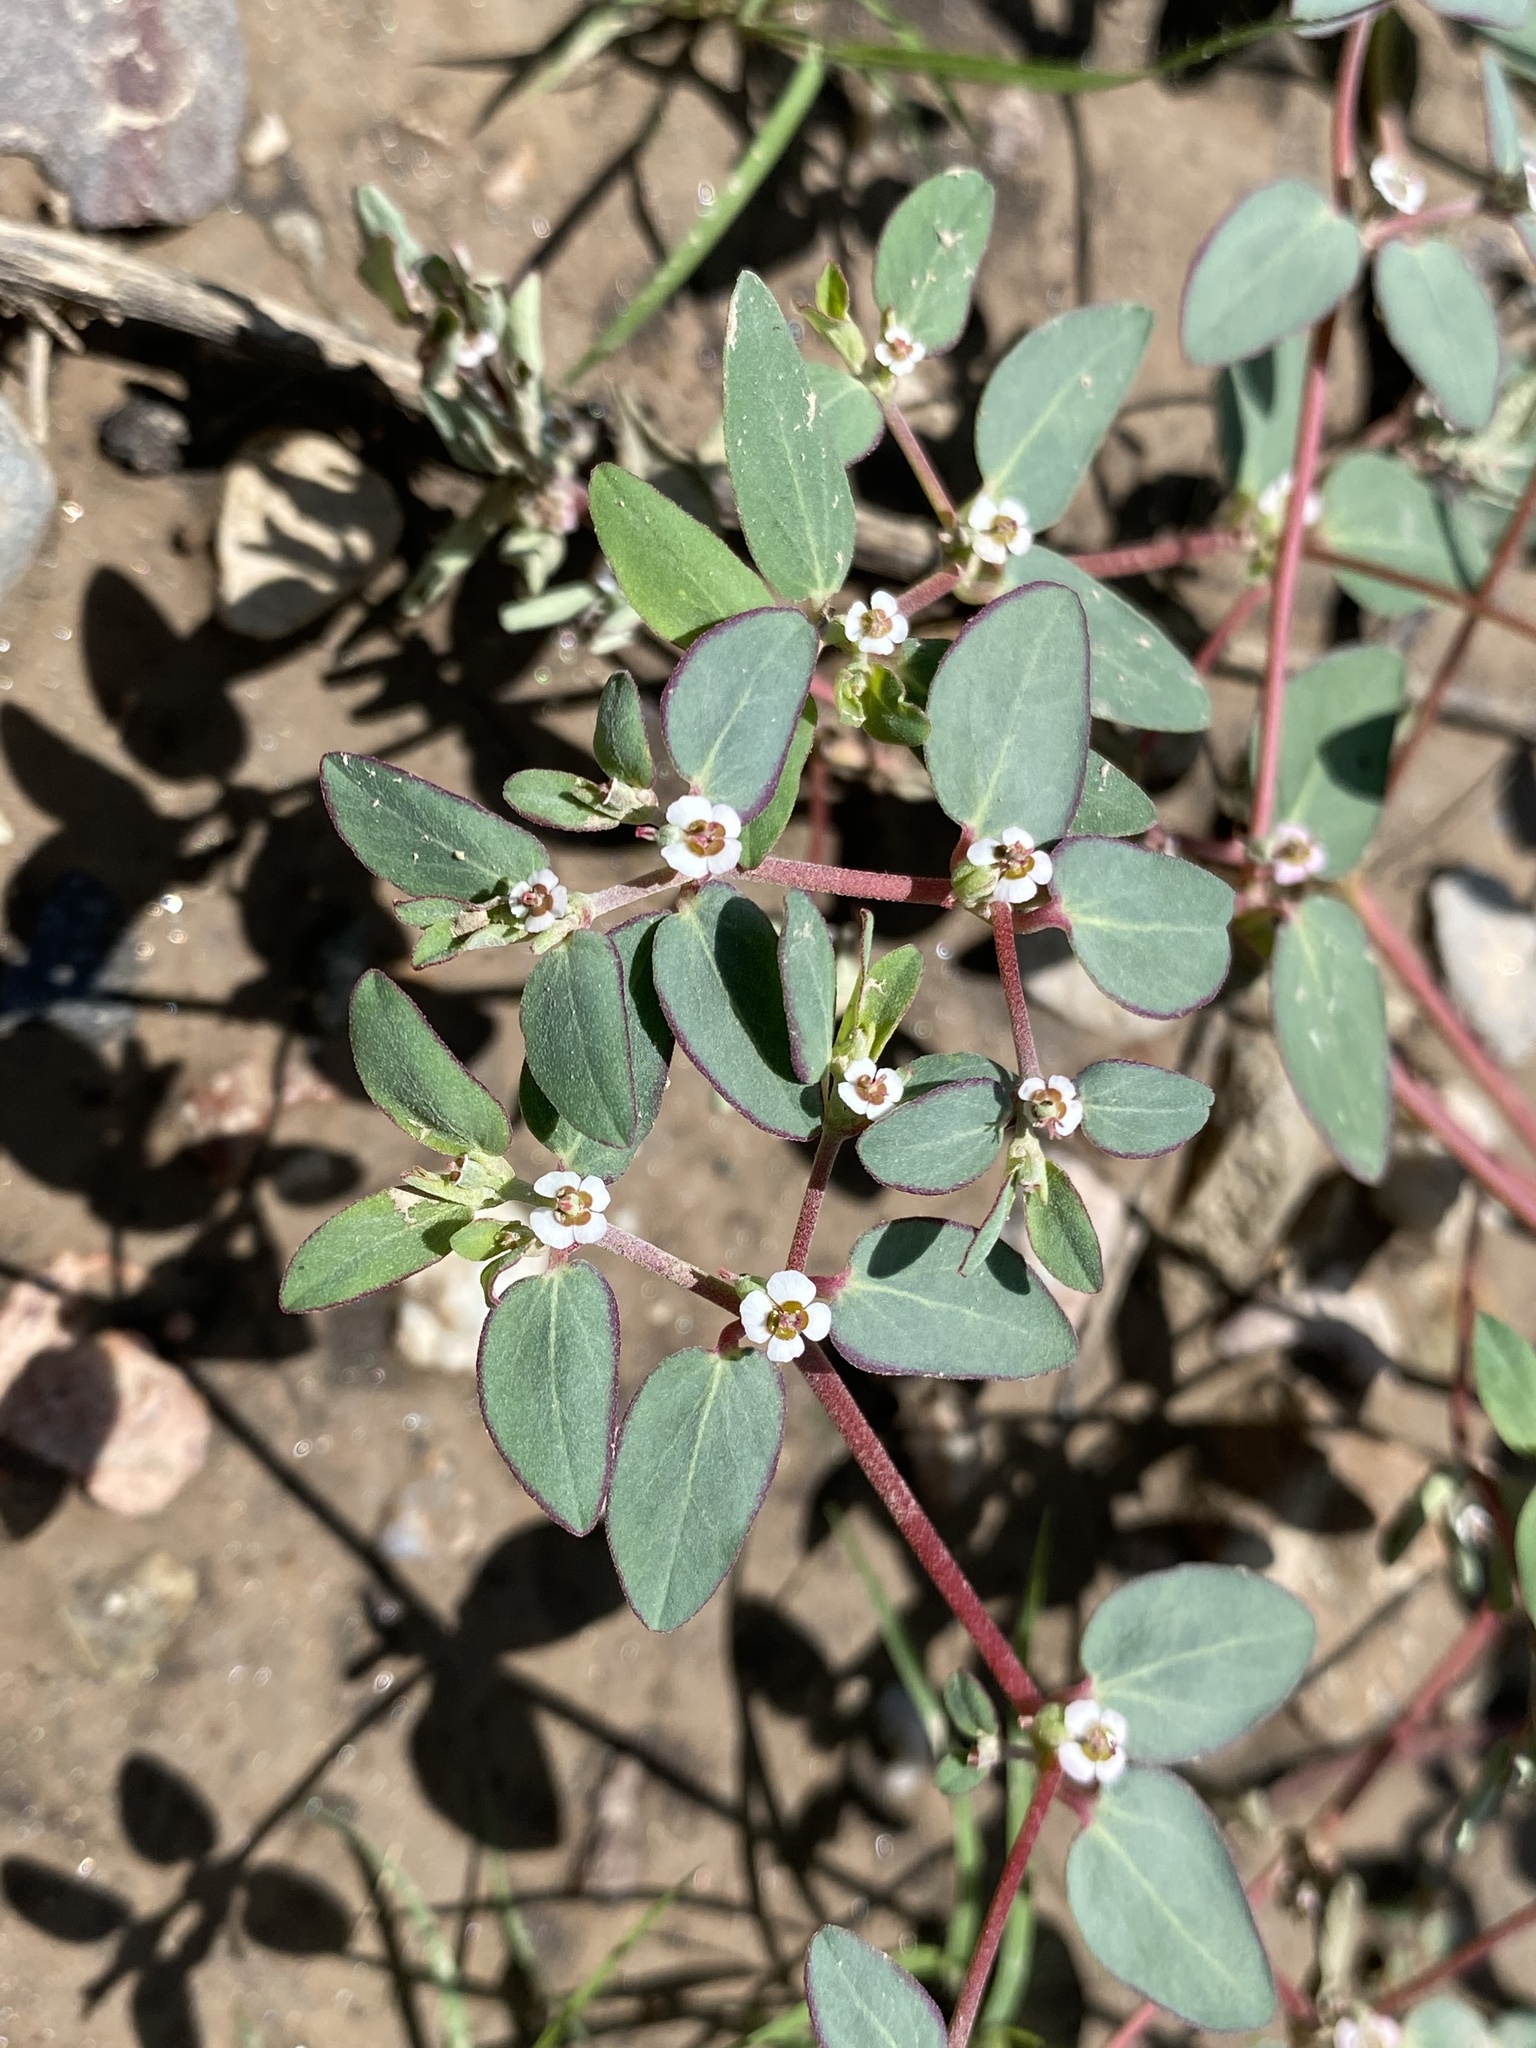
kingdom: Plantae
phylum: Tracheophyta
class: Magnoliopsida
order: Malpighiales
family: Euphorbiaceae
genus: Euphorbia
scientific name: Euphorbia pediculifera
